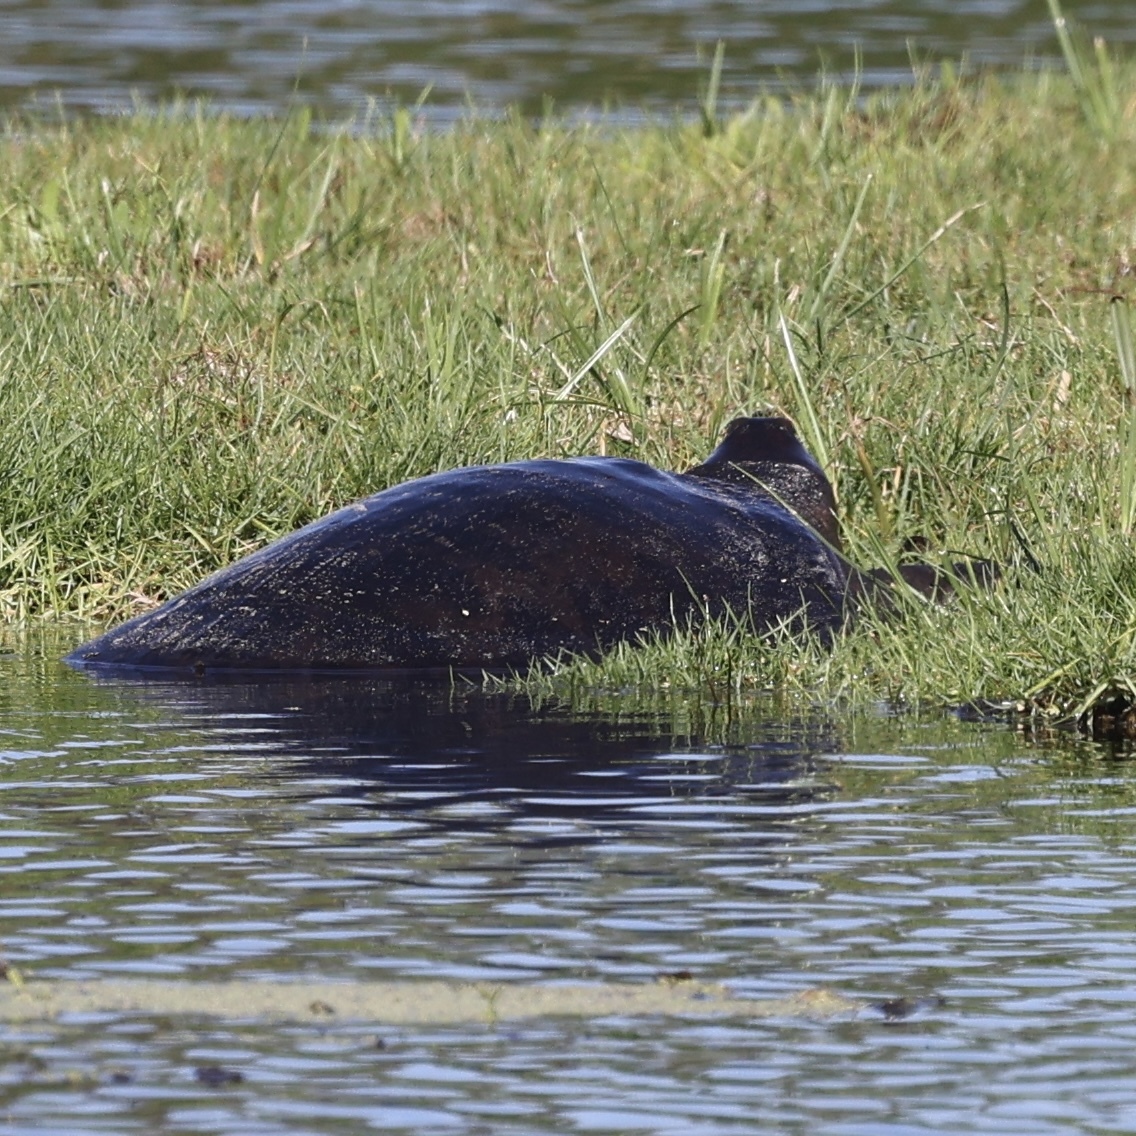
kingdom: Animalia
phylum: Chordata
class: Testudines
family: Trionychidae
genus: Apalone
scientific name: Apalone ferox
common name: Florida softshell turtle
